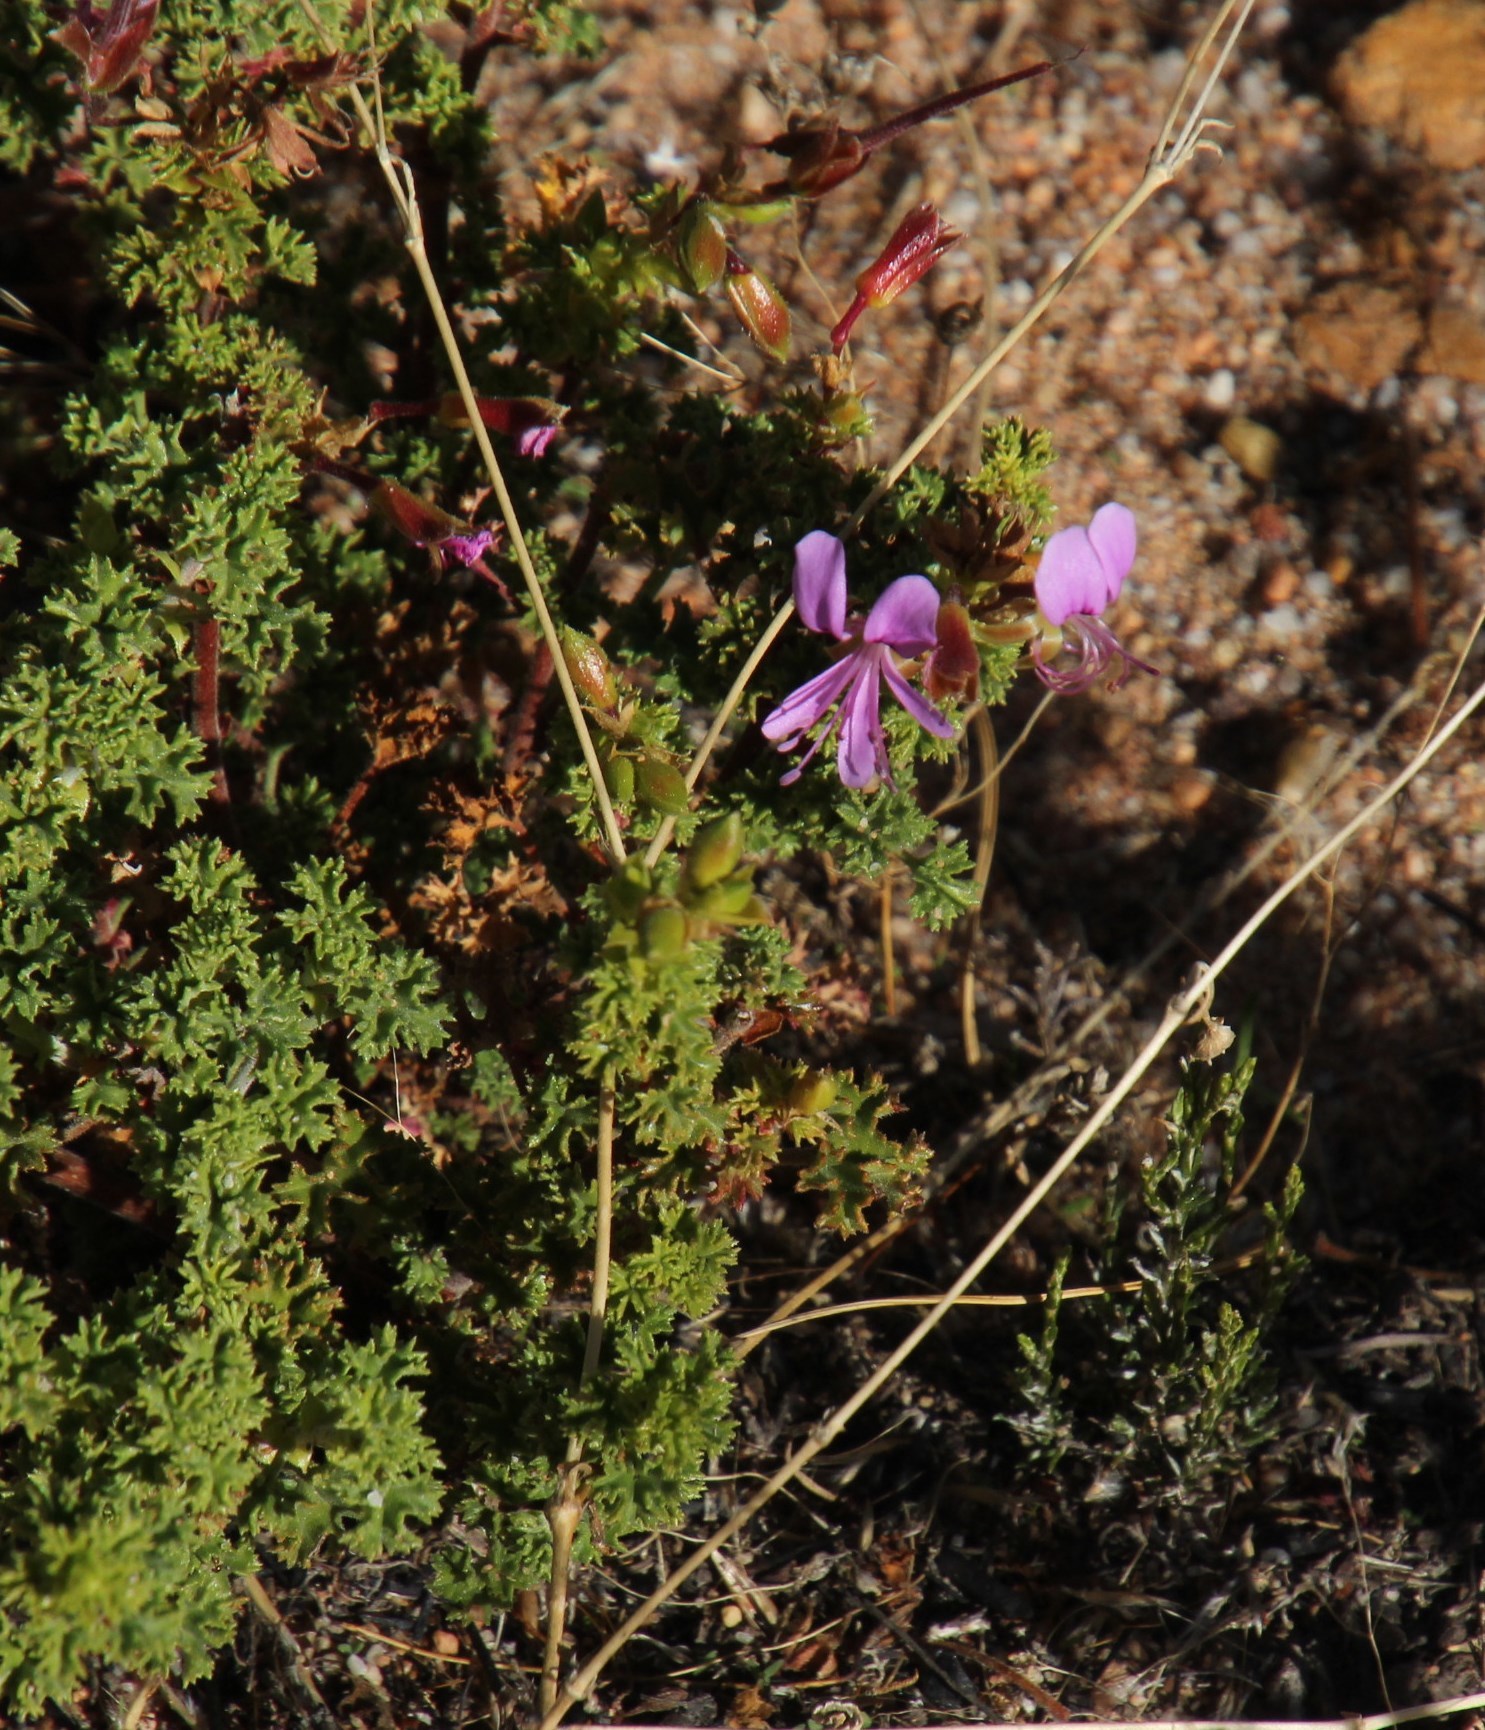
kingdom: Plantae
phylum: Tracheophyta
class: Magnoliopsida
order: Geraniales
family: Geraniaceae
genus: Pelargonium
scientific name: Pelargonium englerianum
